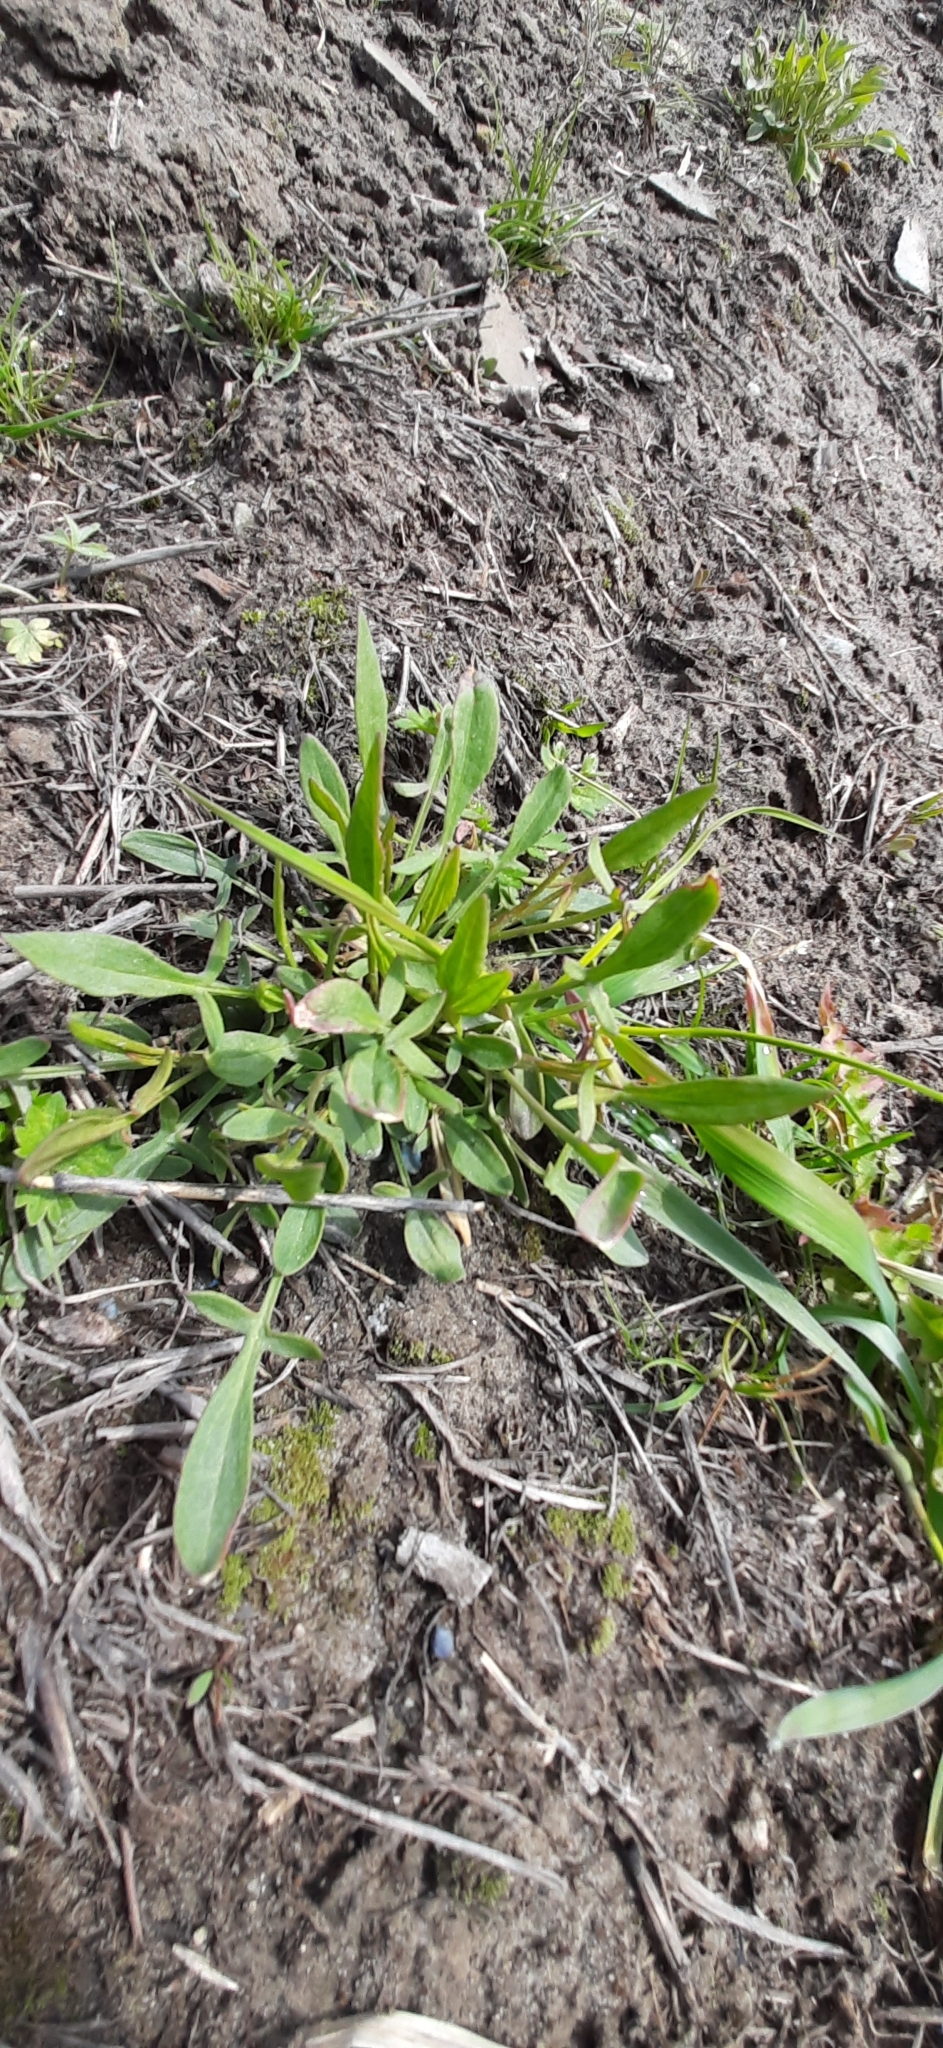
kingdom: Plantae
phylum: Tracheophyta
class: Magnoliopsida
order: Caryophyllales
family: Polygonaceae
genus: Rumex
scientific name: Rumex acetosella
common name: Common sheep sorrel
